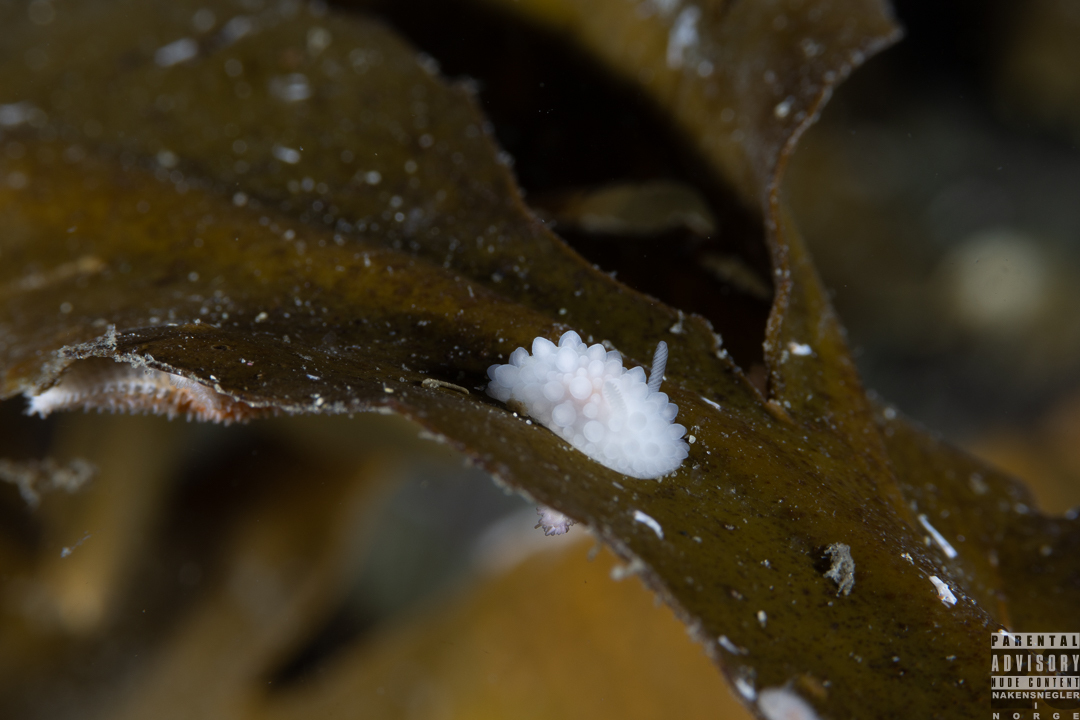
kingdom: Animalia
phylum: Mollusca
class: Gastropoda
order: Nudibranchia
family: Onchidorididae
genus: Adalaria
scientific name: Adalaria loveni
